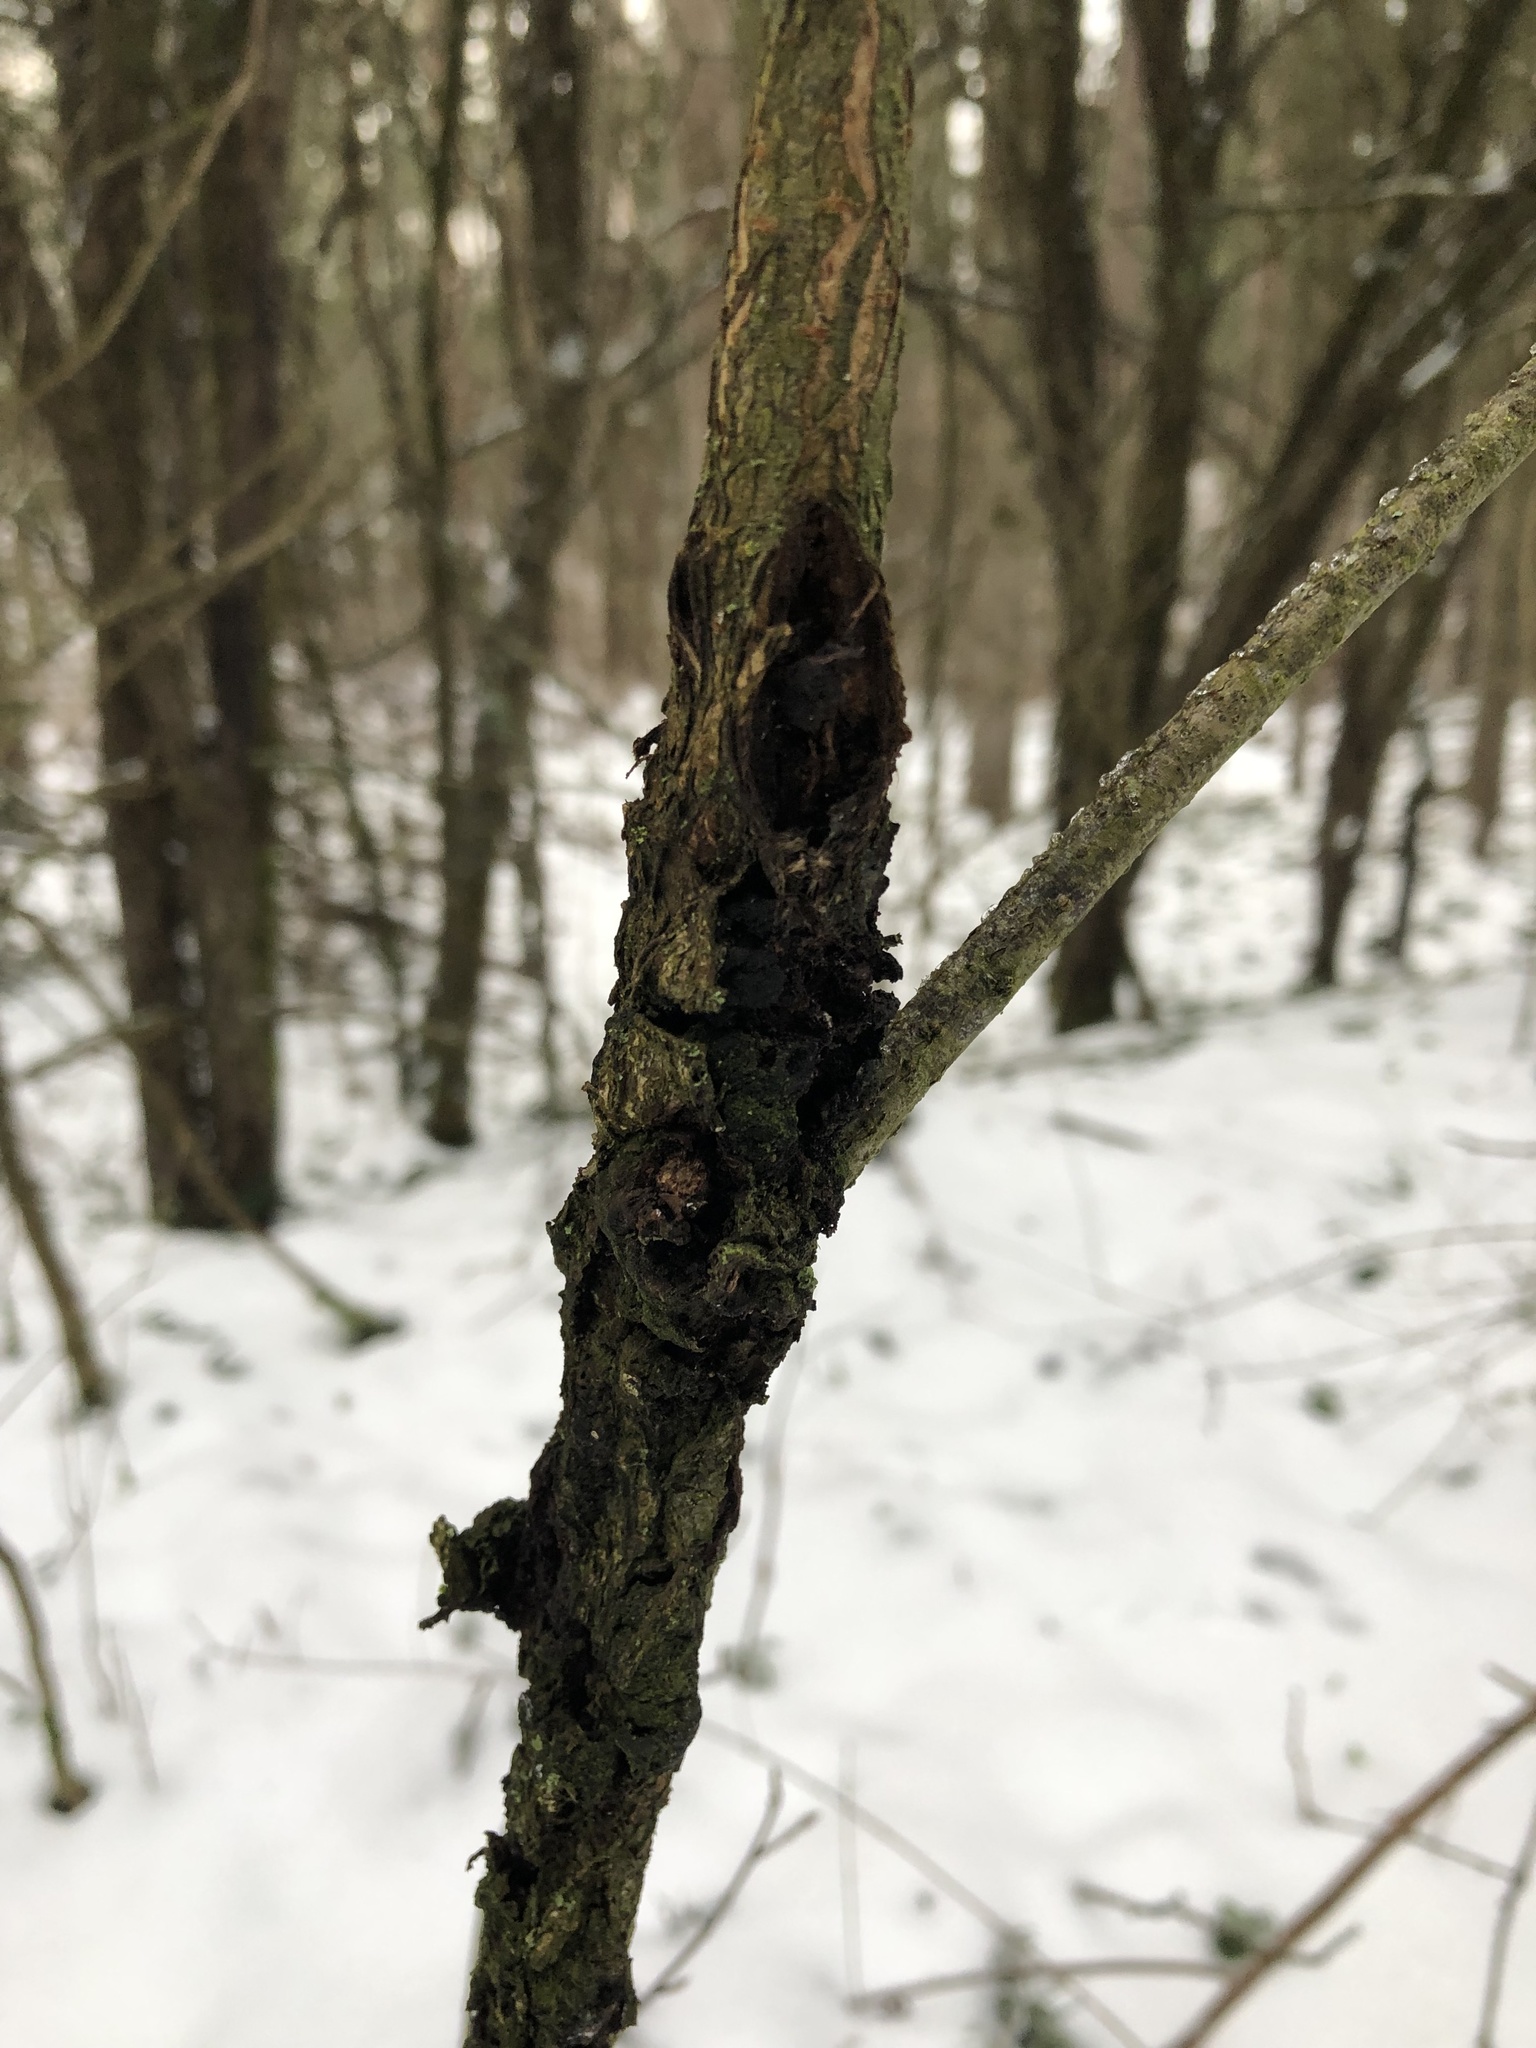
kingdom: Fungi
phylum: Ascomycota
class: Dothideomycetes
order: Venturiales
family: Venturiaceae
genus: Apiosporina
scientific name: Apiosporina morbosa
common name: Black knot
